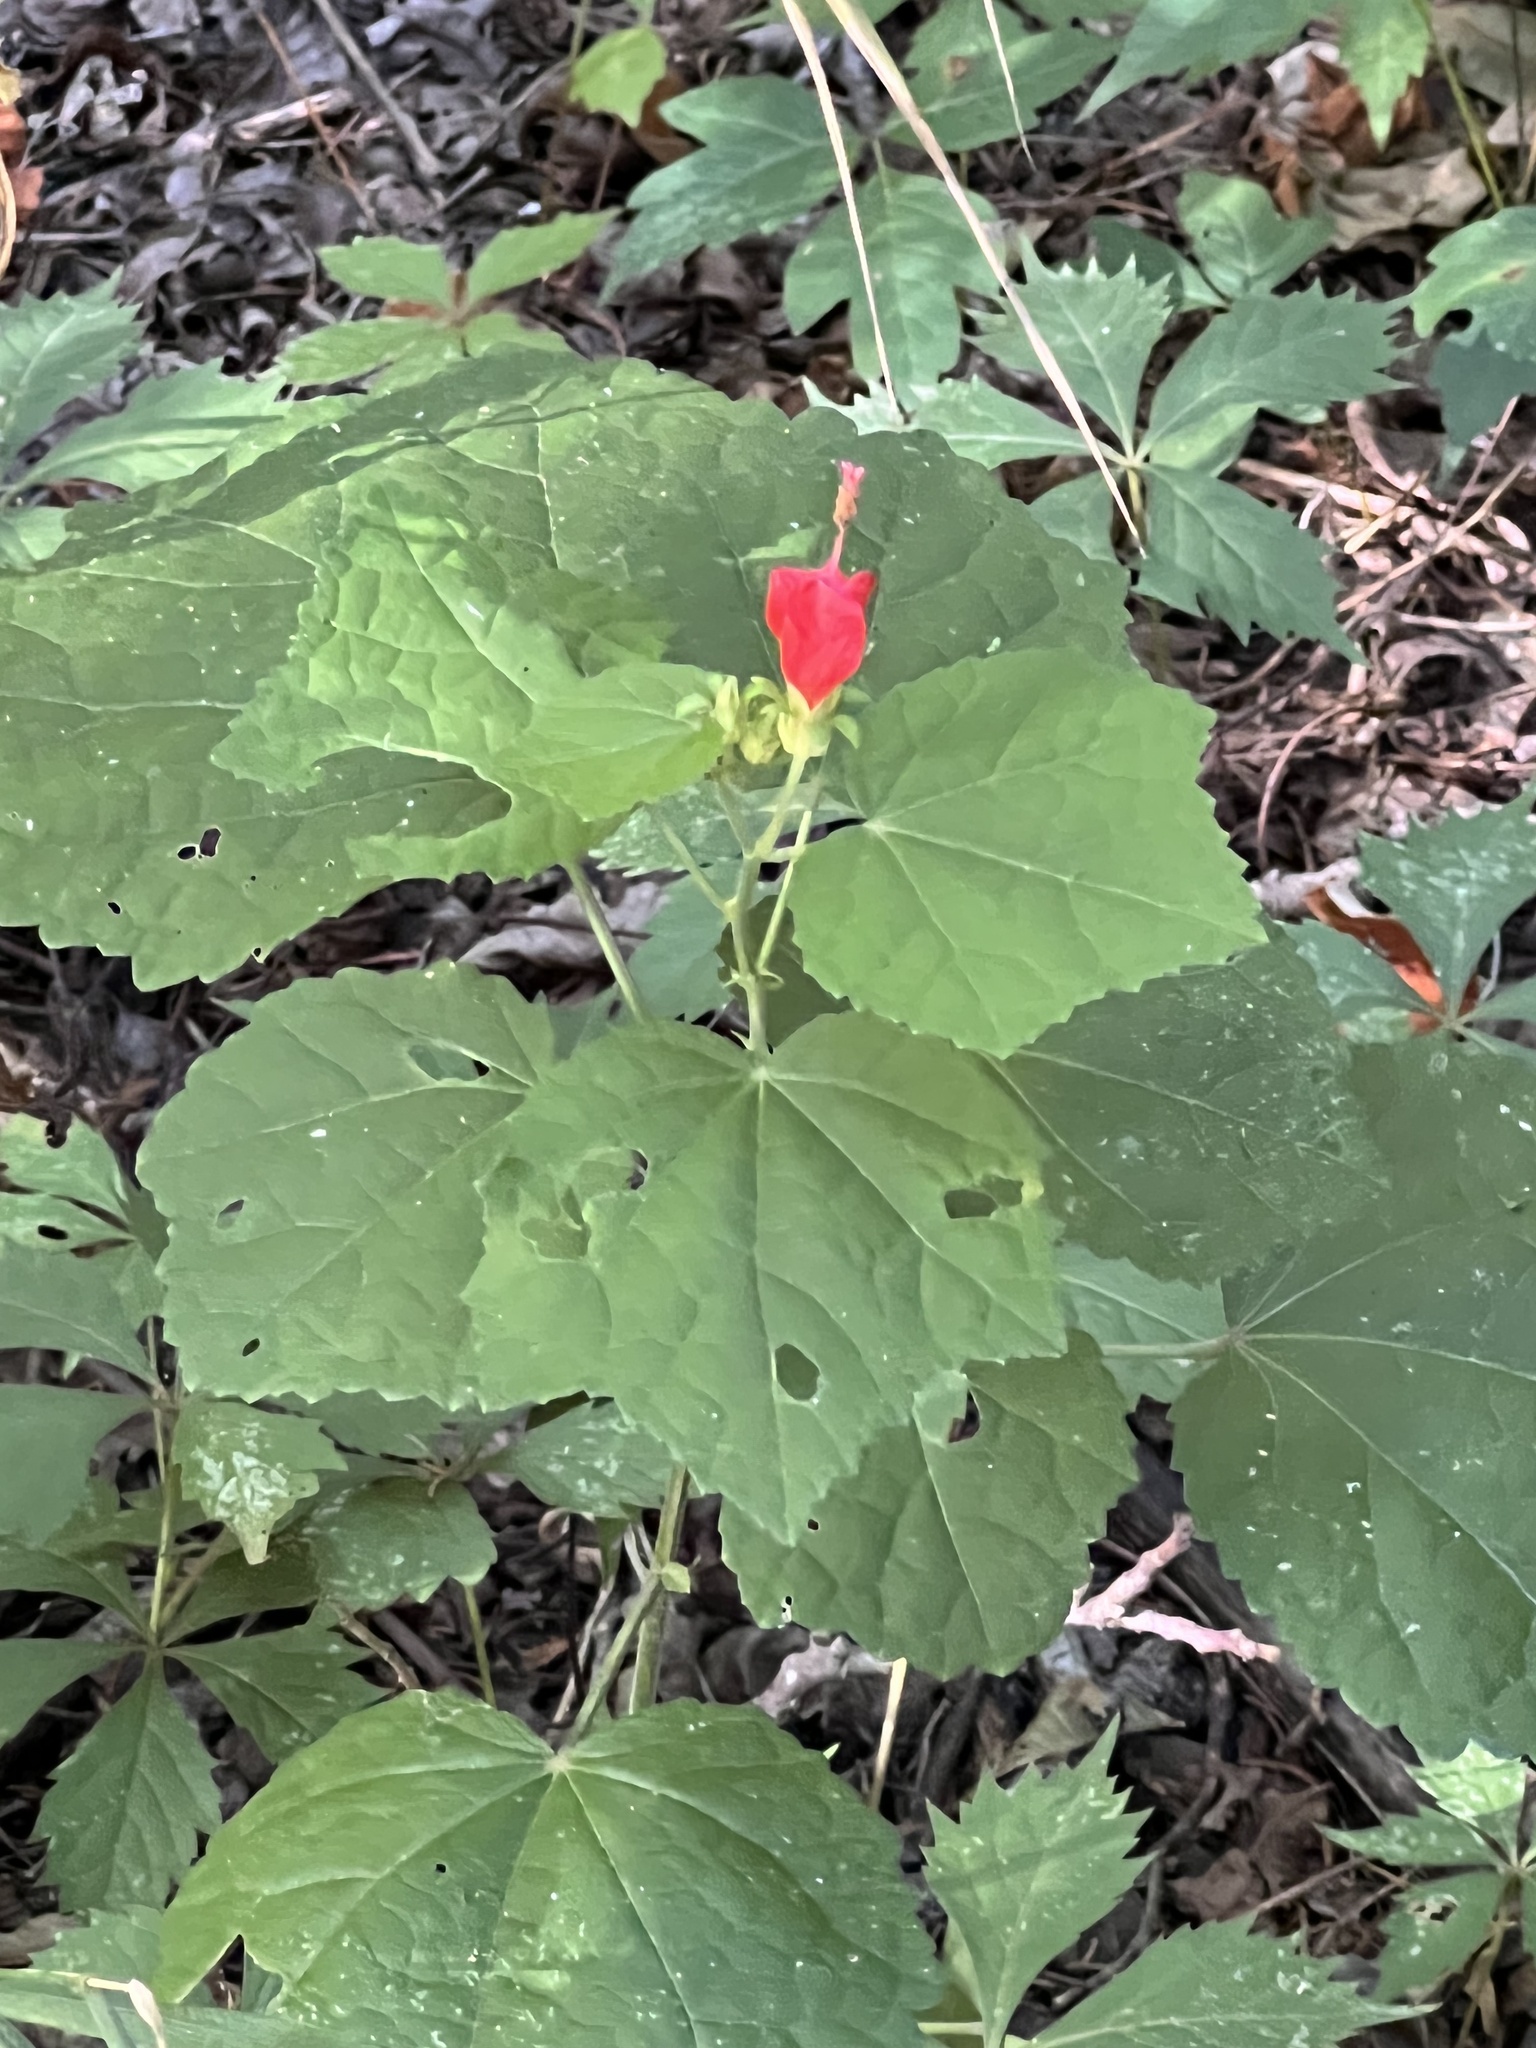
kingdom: Plantae
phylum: Tracheophyta
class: Magnoliopsida
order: Malvales
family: Malvaceae
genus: Malvaviscus
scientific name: Malvaviscus arboreus
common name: Wax mallow
